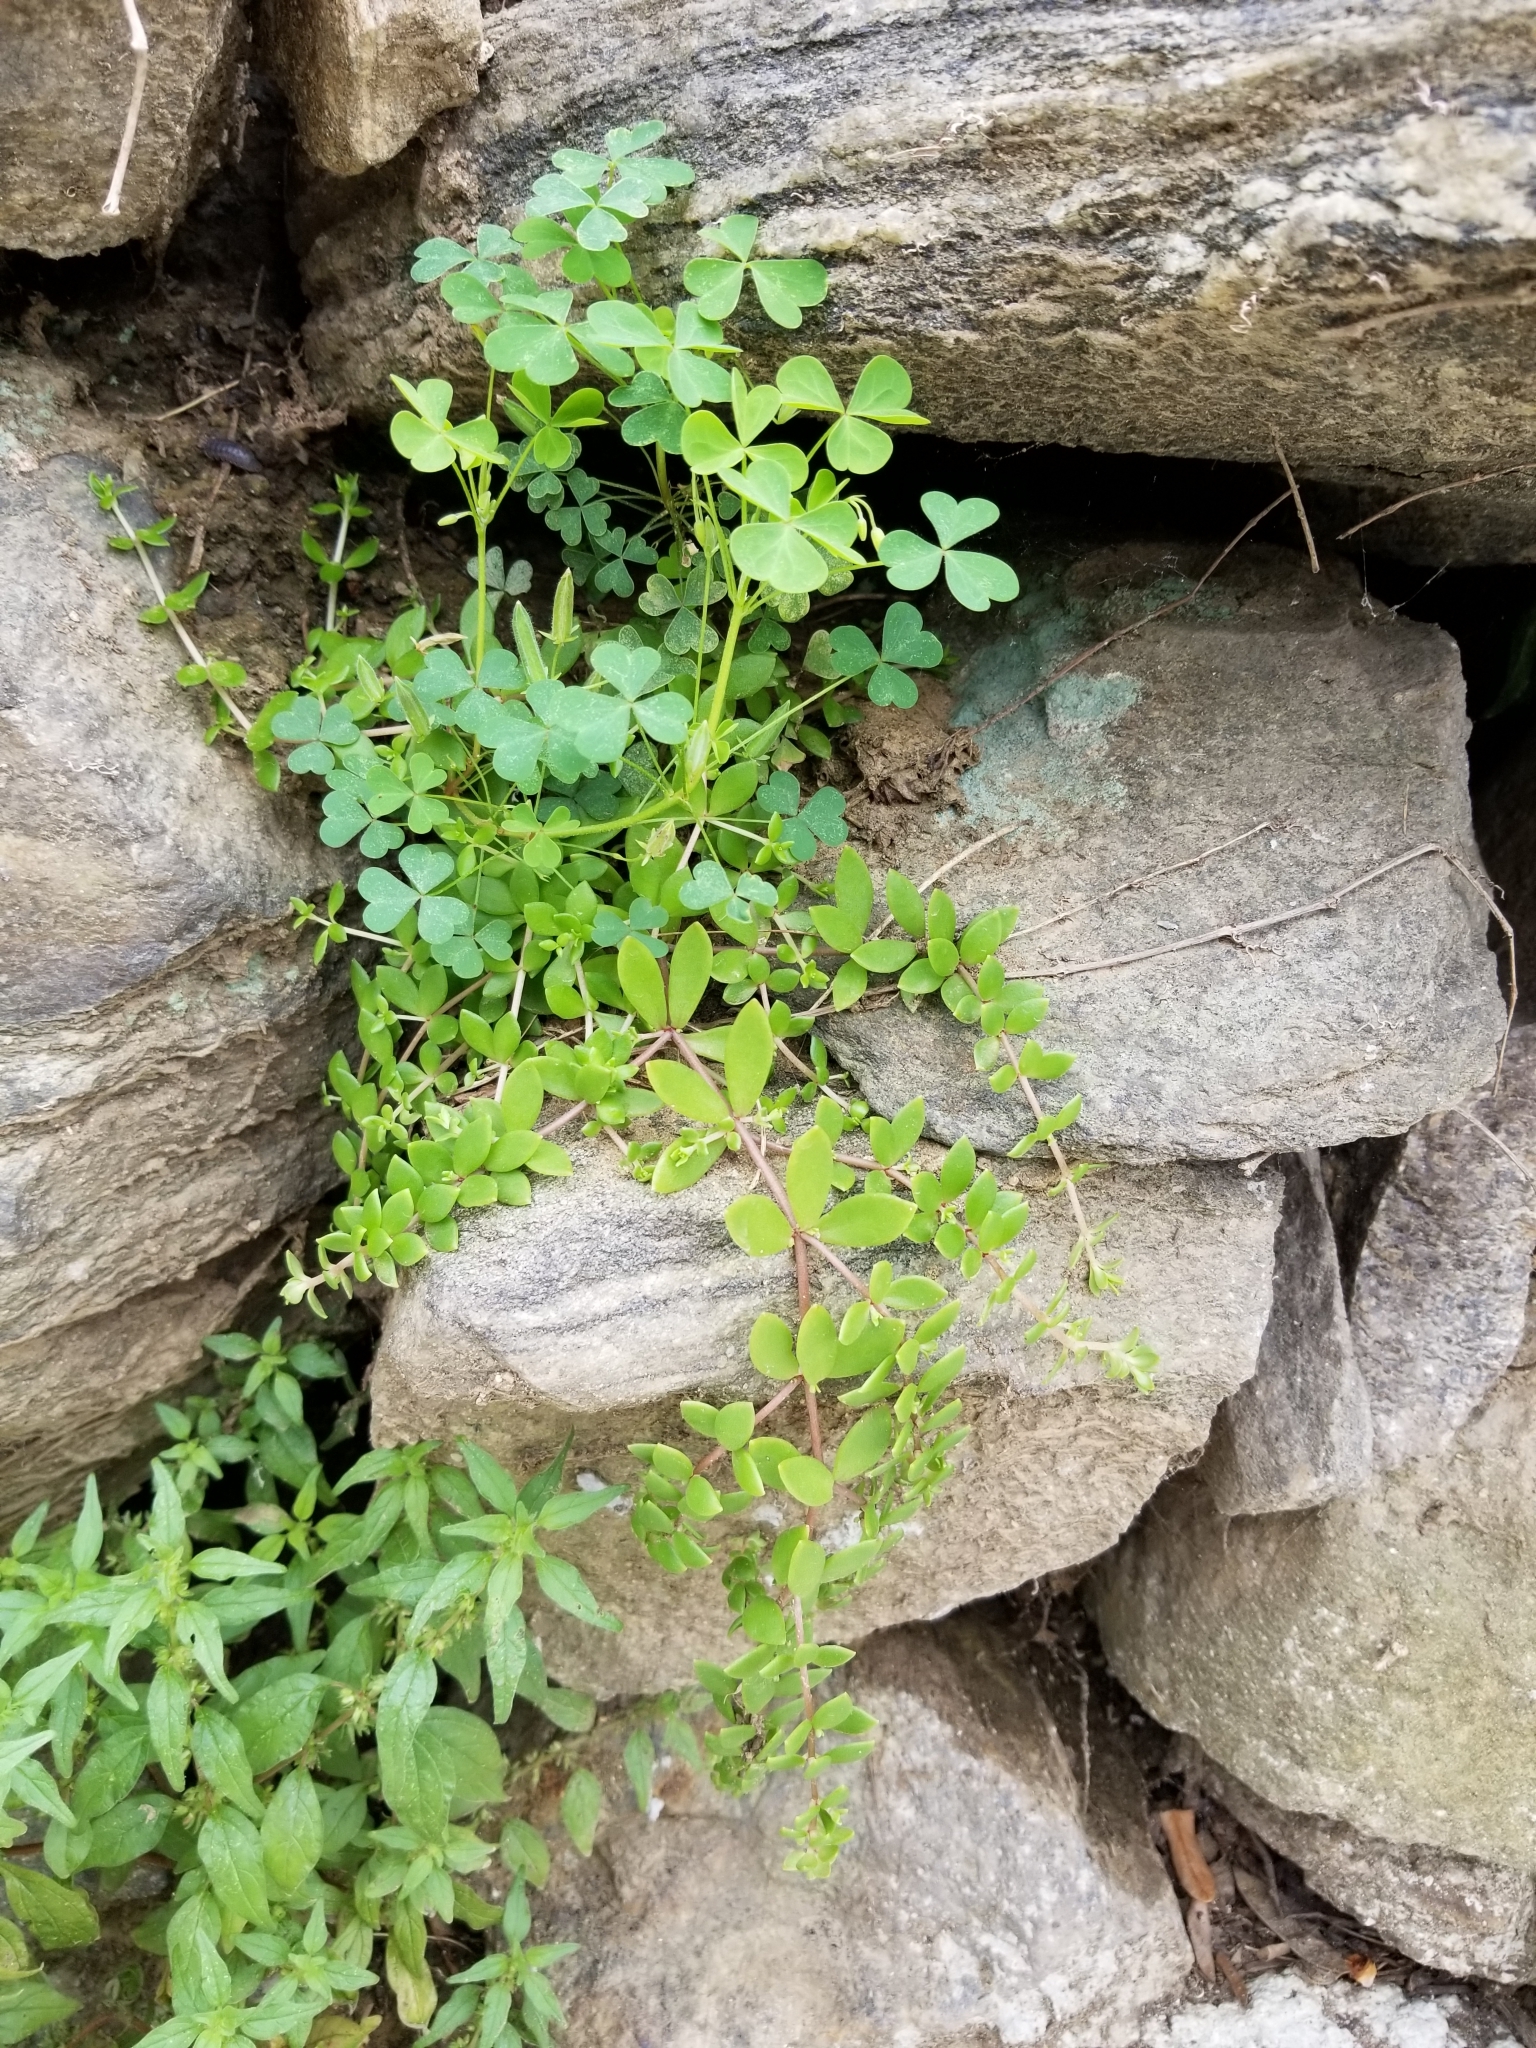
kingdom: Plantae
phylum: Tracheophyta
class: Magnoliopsida
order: Saxifragales
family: Crassulaceae
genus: Sedum
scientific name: Sedum sarmentosum
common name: Stringy stonecrop
